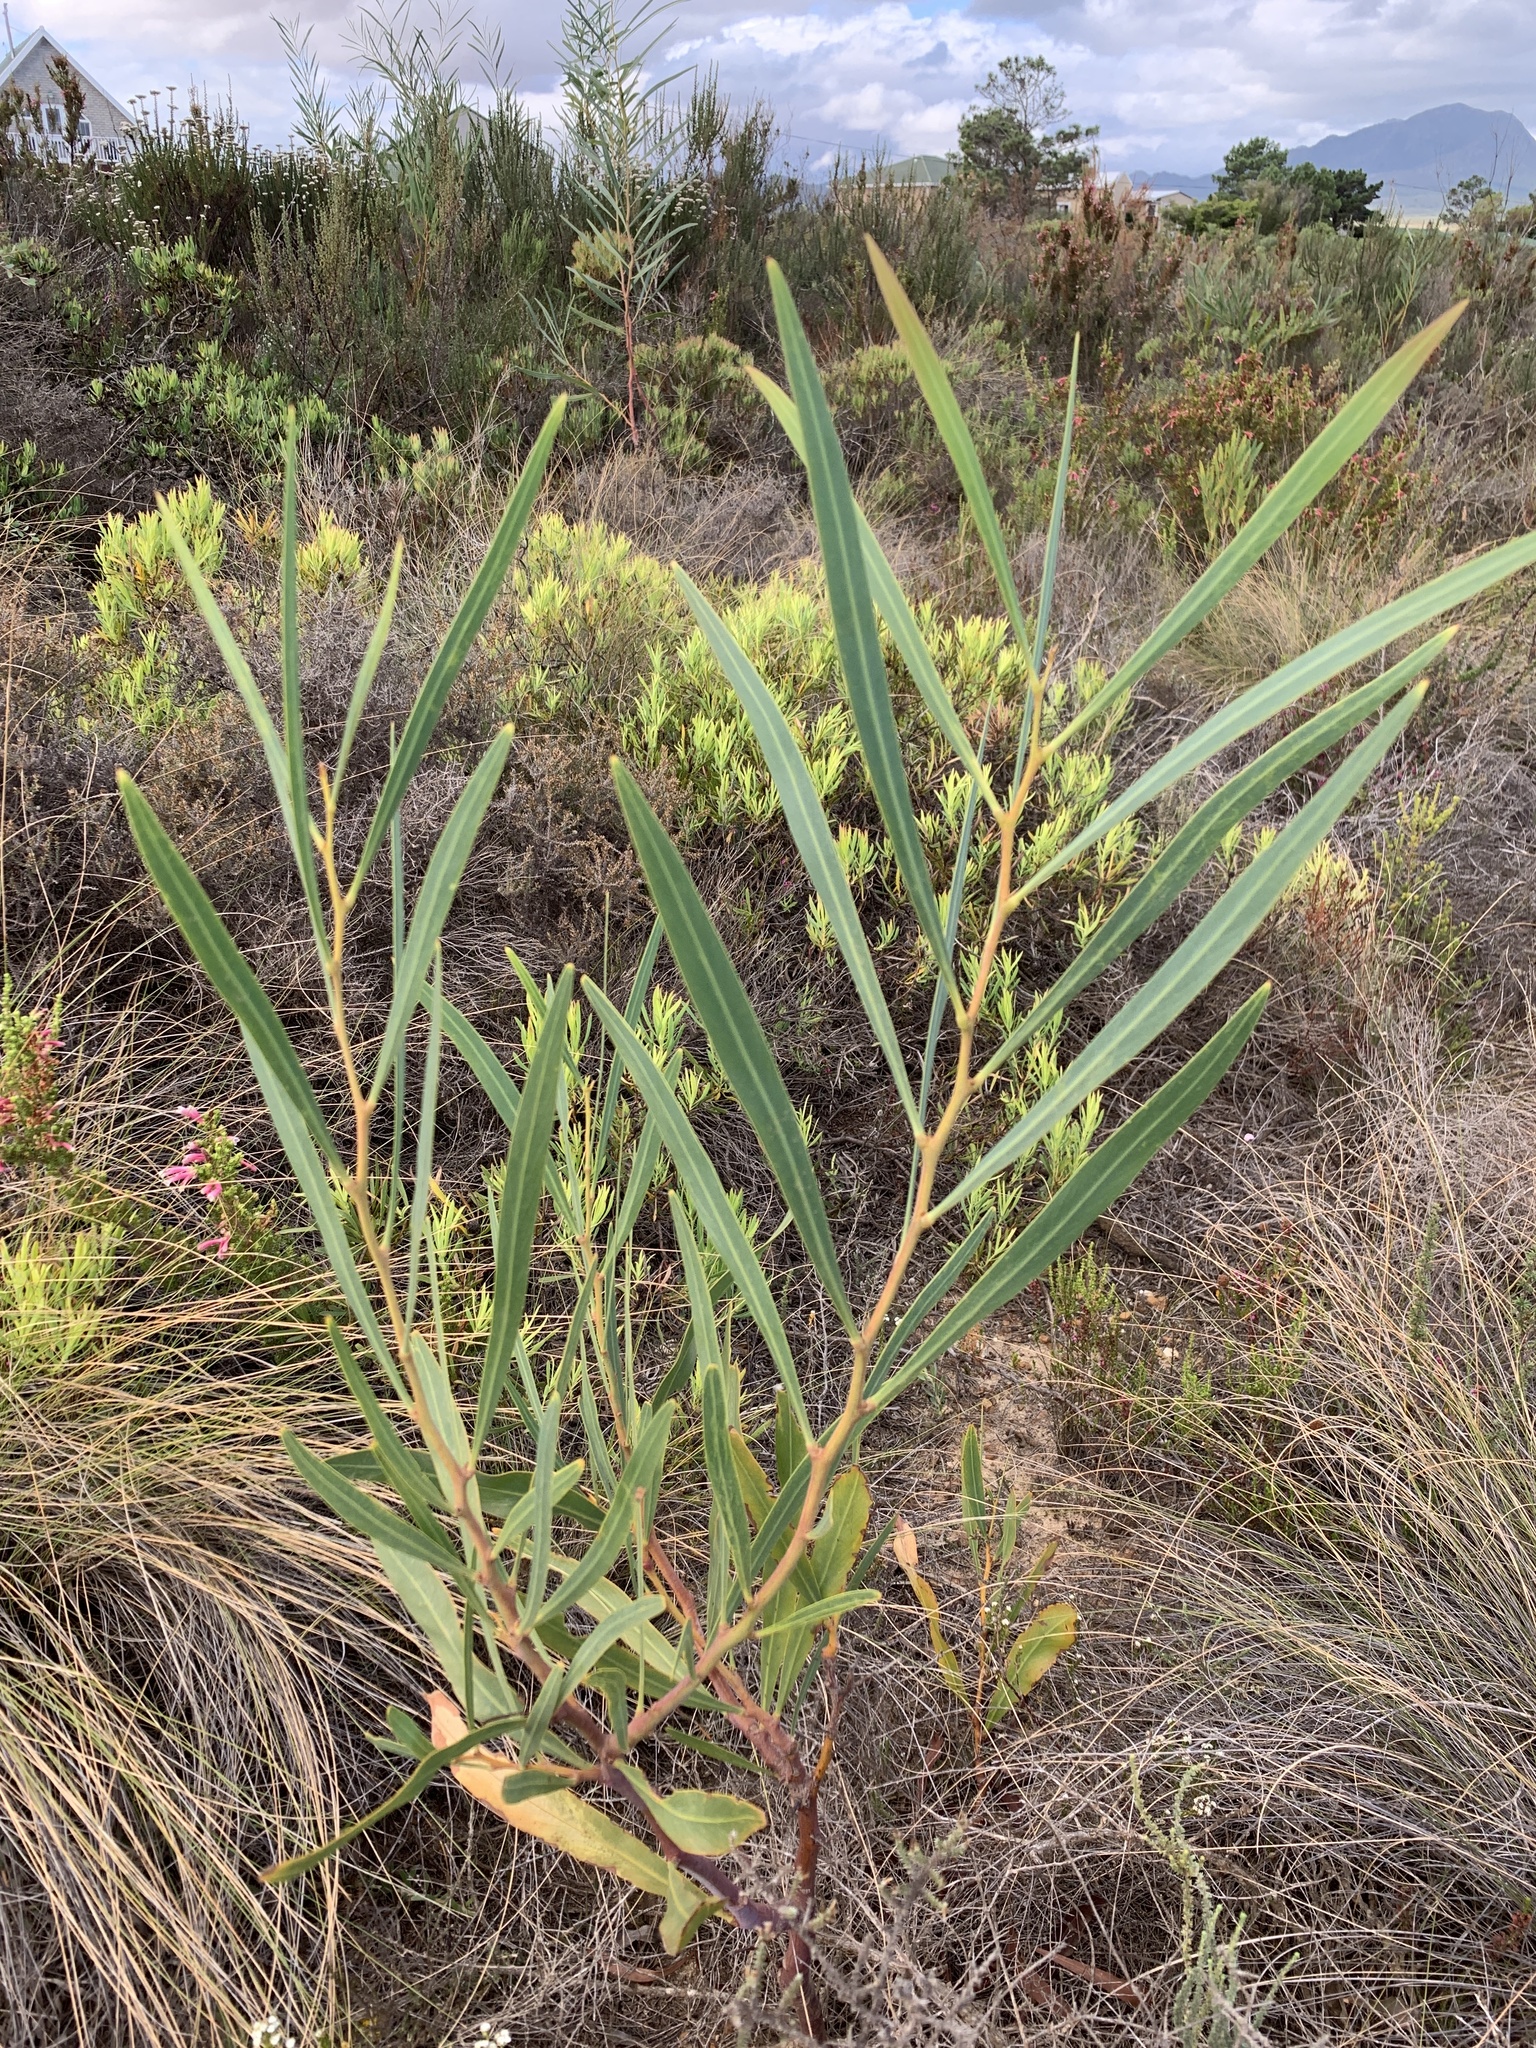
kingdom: Plantae
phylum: Tracheophyta
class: Magnoliopsida
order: Fabales
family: Fabaceae
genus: Acacia
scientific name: Acacia saligna
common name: Orange wattle
